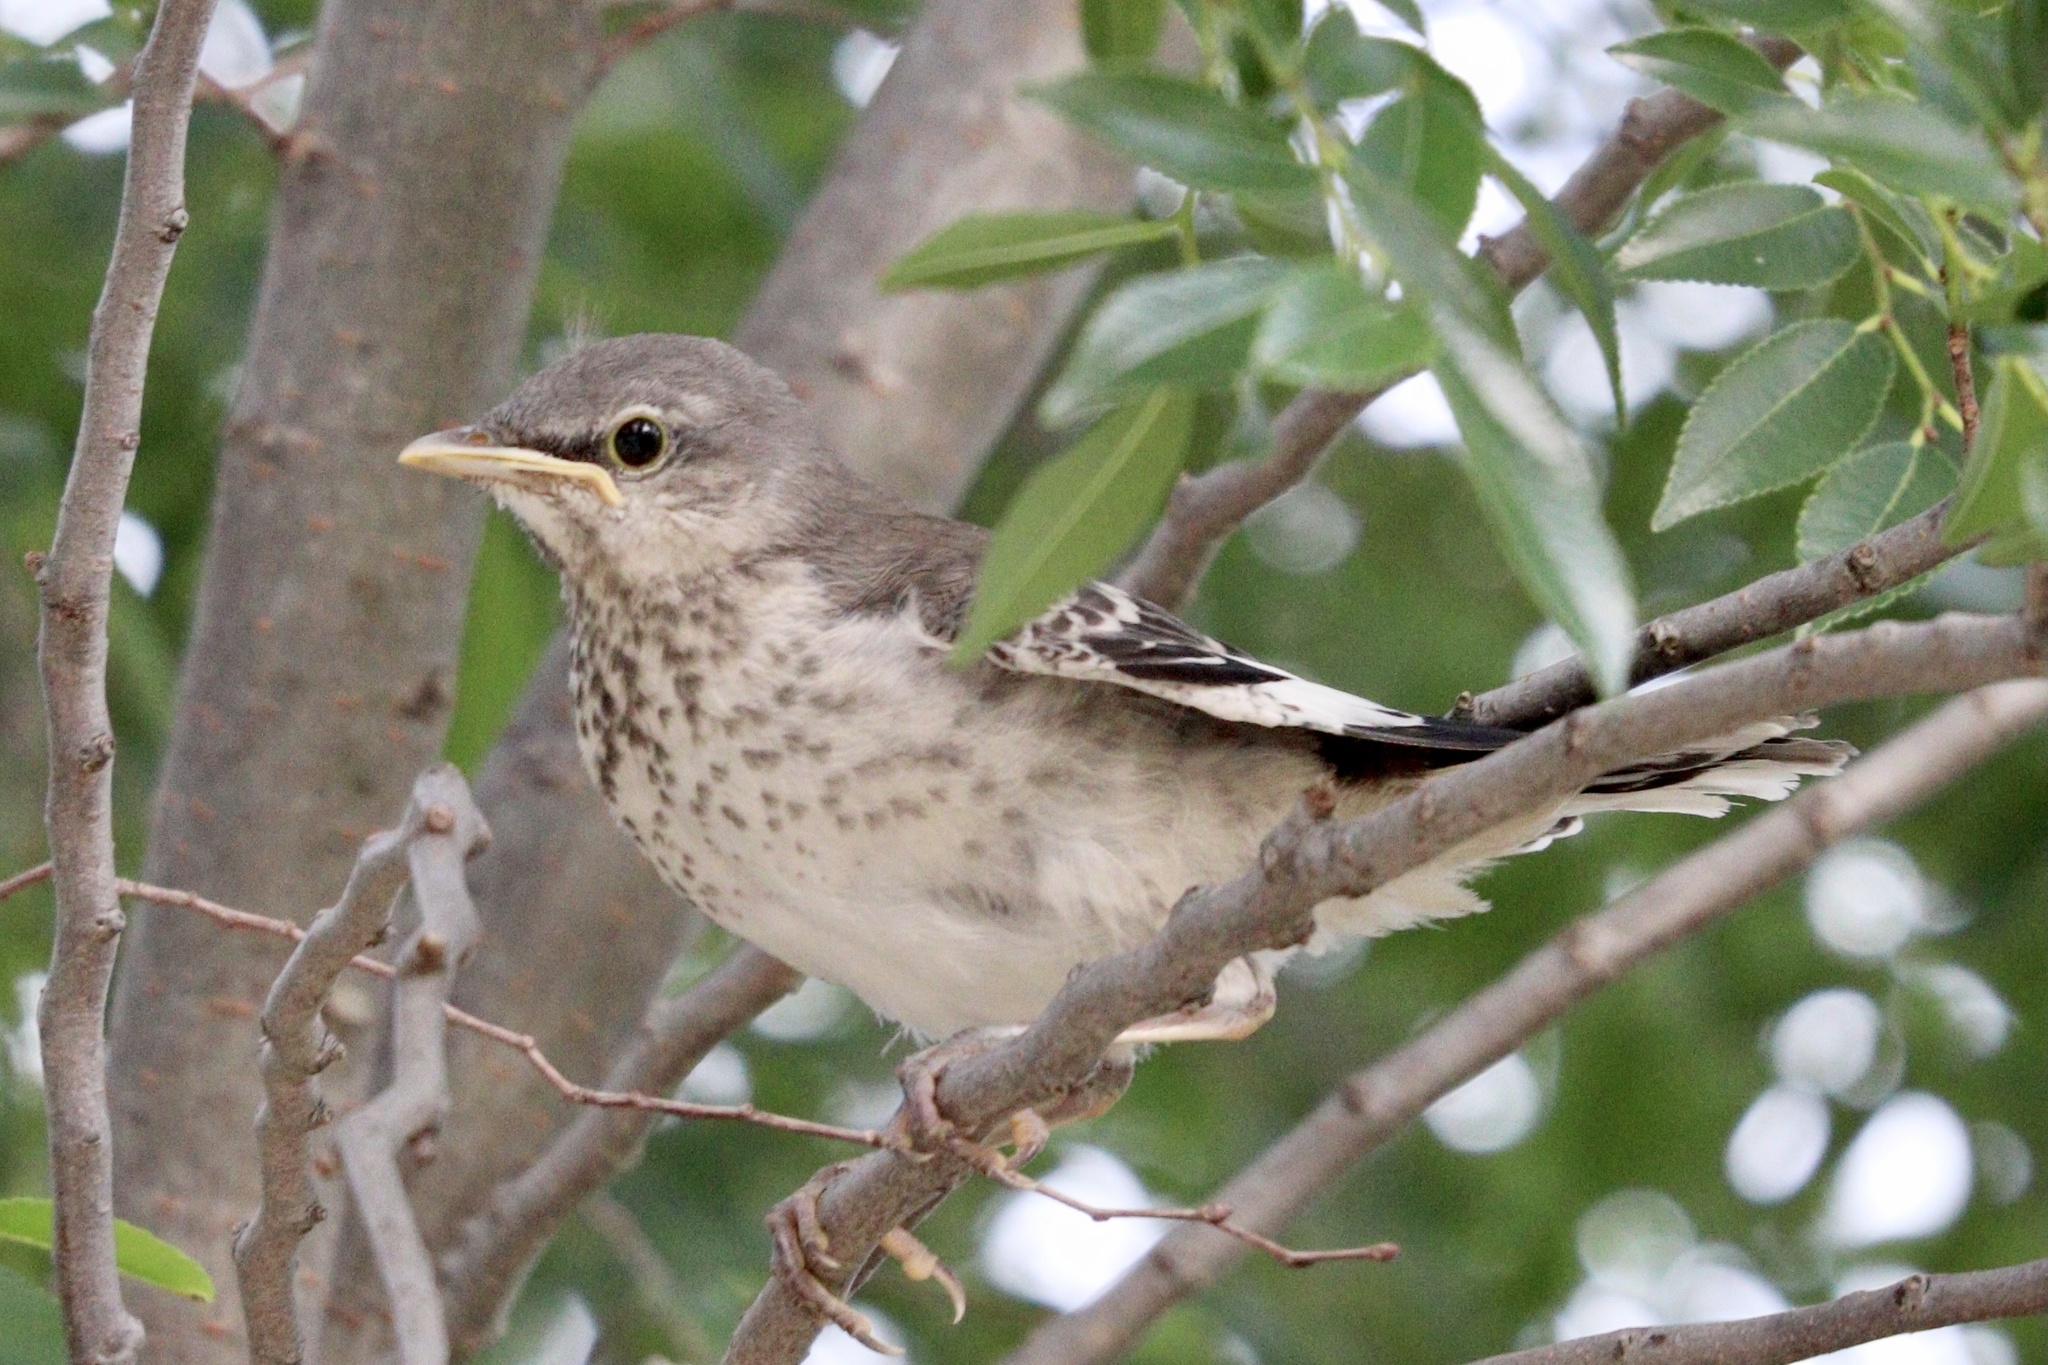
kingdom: Animalia
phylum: Chordata
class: Aves
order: Passeriformes
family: Mimidae
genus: Mimus
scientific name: Mimus polyglottos
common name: Northern mockingbird
